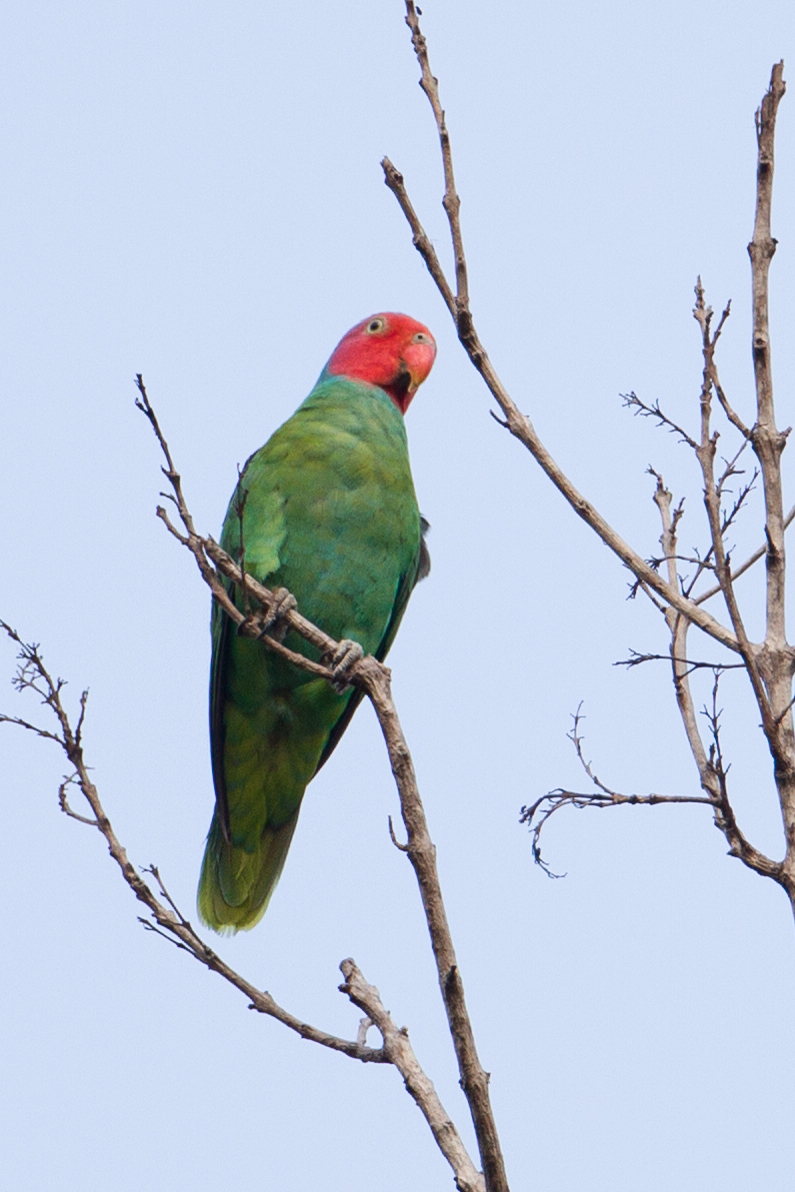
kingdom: Animalia
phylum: Chordata
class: Aves
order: Psittaciformes
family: Psittacidae
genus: Geoffroyus
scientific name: Geoffroyus geoffroyi
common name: Red-cheeked parrot
